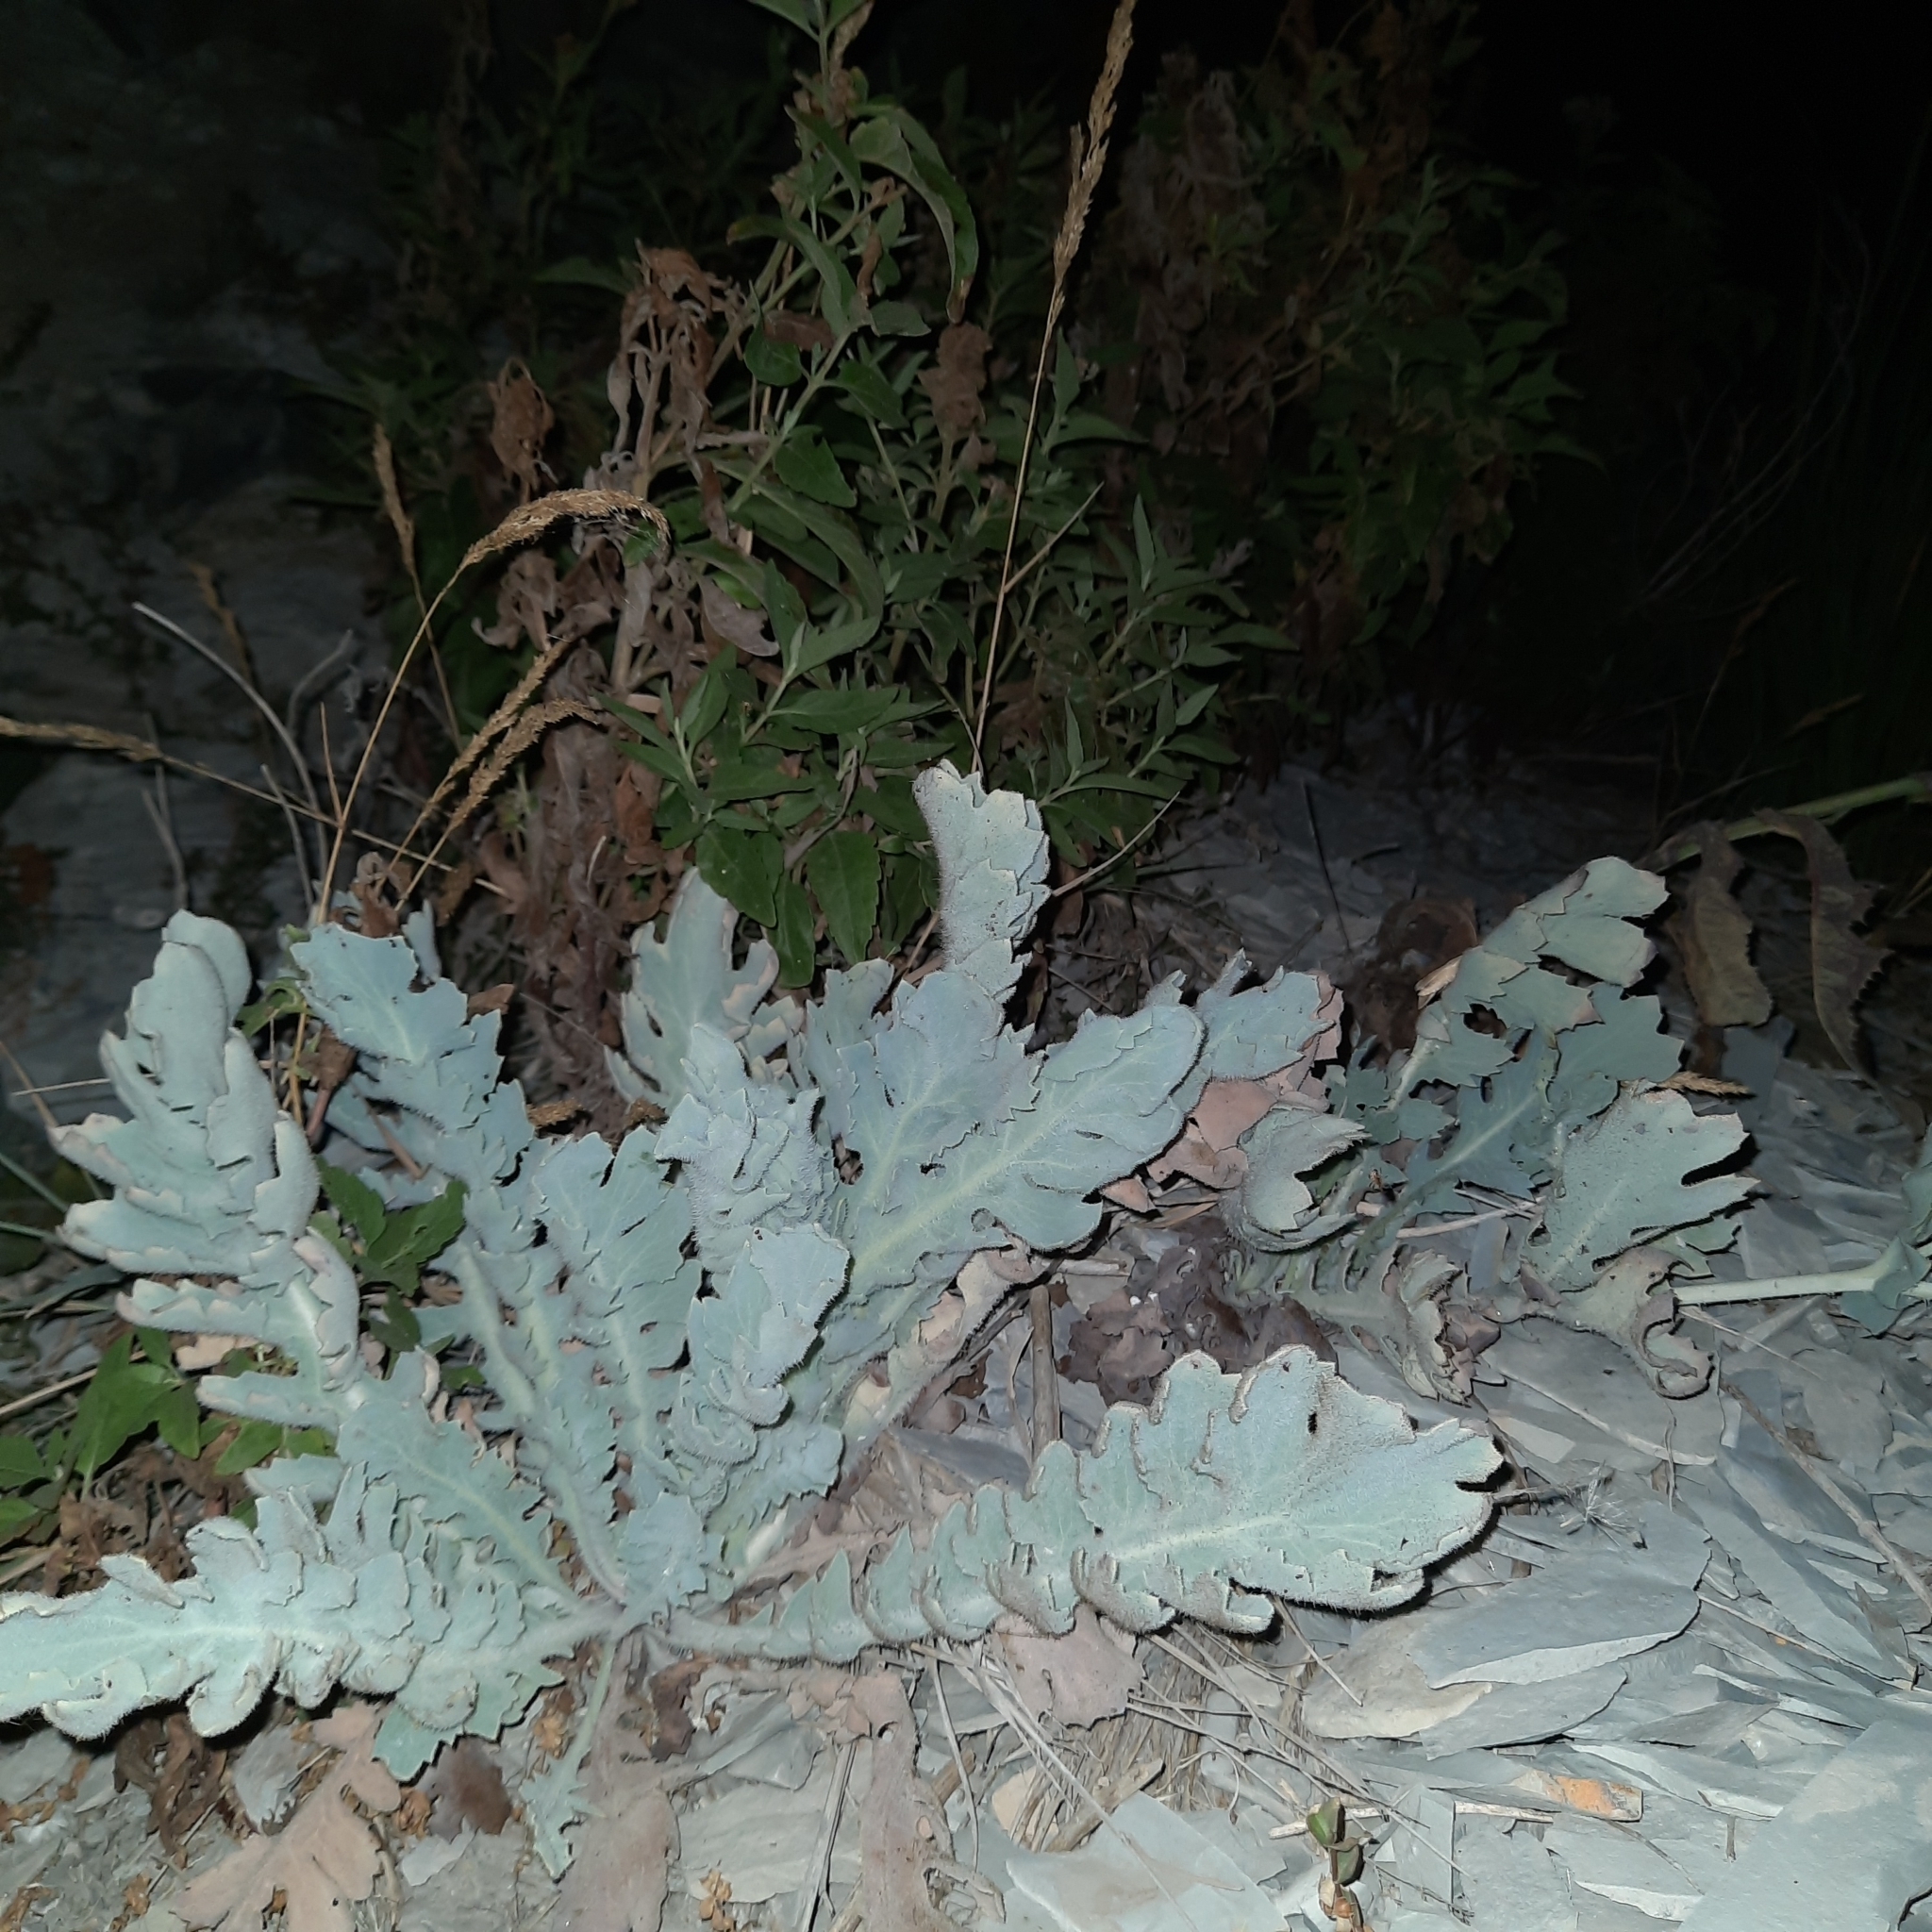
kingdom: Plantae
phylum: Tracheophyta
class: Magnoliopsida
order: Ranunculales
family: Papaveraceae
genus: Glaucium
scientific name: Glaucium flavum
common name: Yellow horned-poppy
